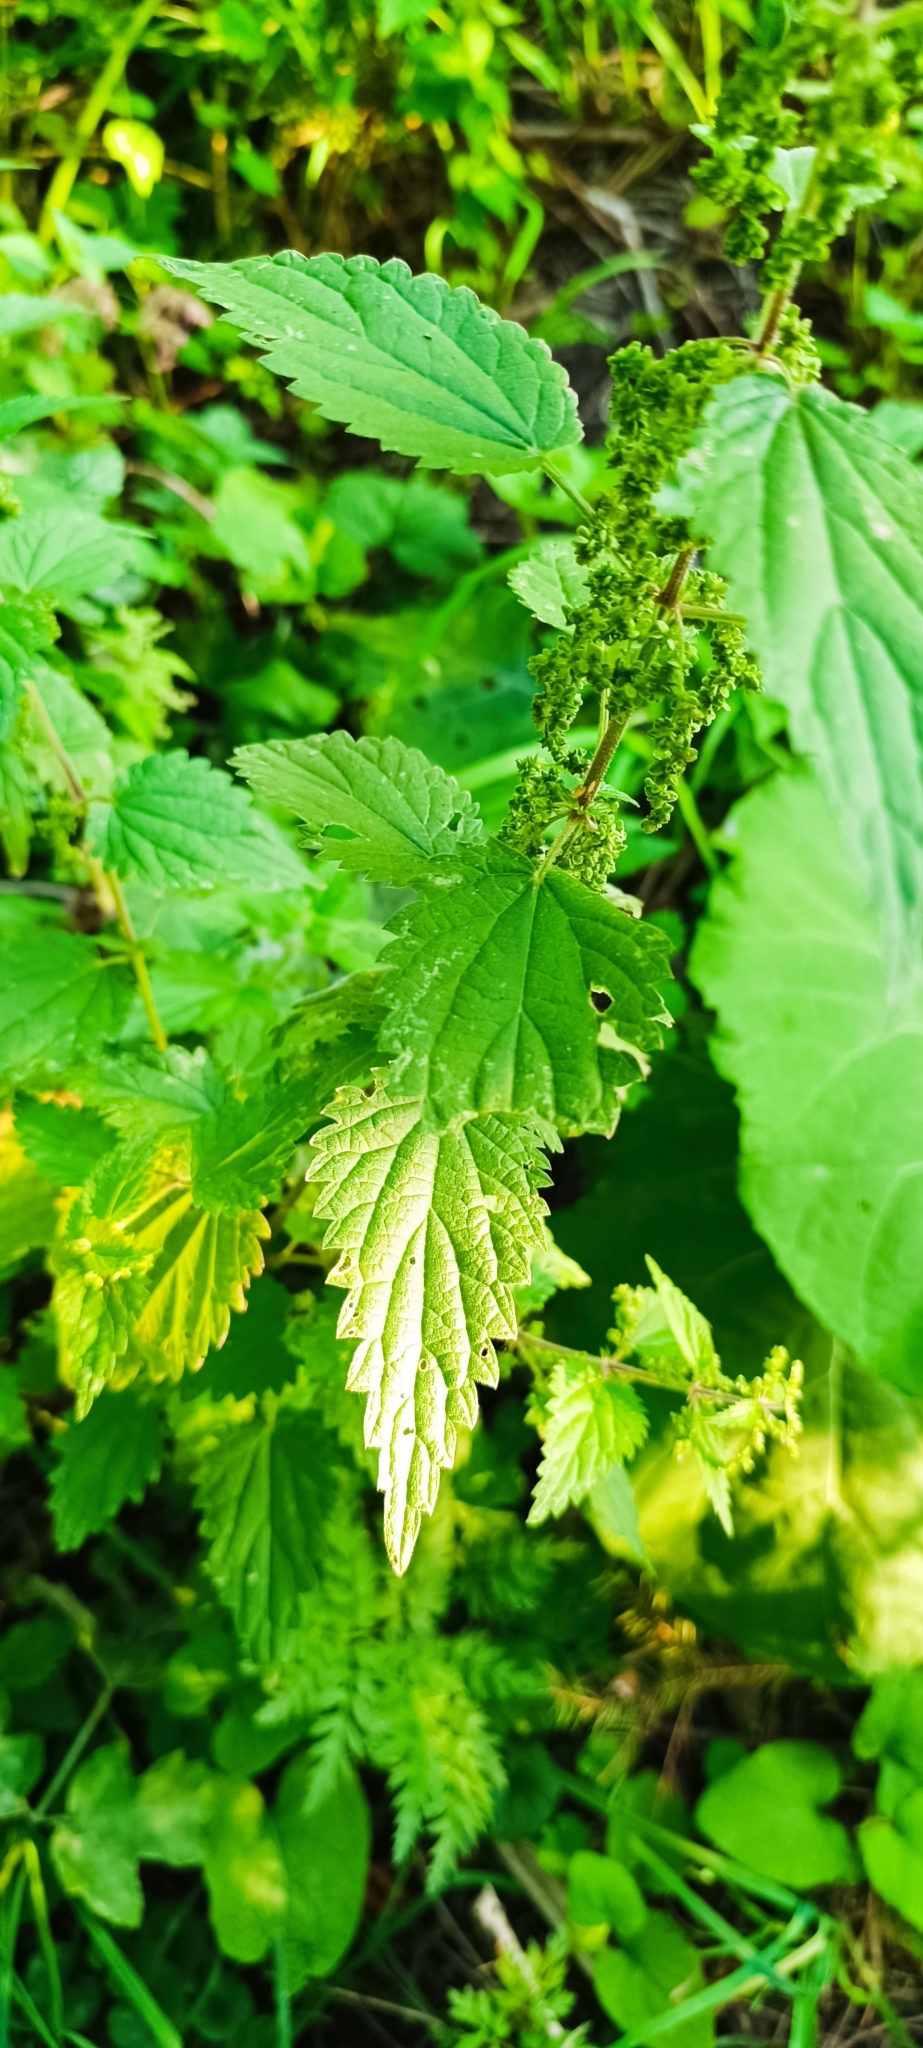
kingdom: Plantae
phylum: Tracheophyta
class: Magnoliopsida
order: Rosales
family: Urticaceae
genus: Urtica
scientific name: Urtica dioica
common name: Common nettle
